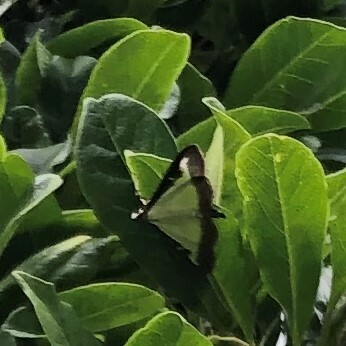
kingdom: Animalia
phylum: Arthropoda
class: Insecta
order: Lepidoptera
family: Crambidae
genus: Cydalima
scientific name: Cydalima perspectalis
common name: Box tree moth
